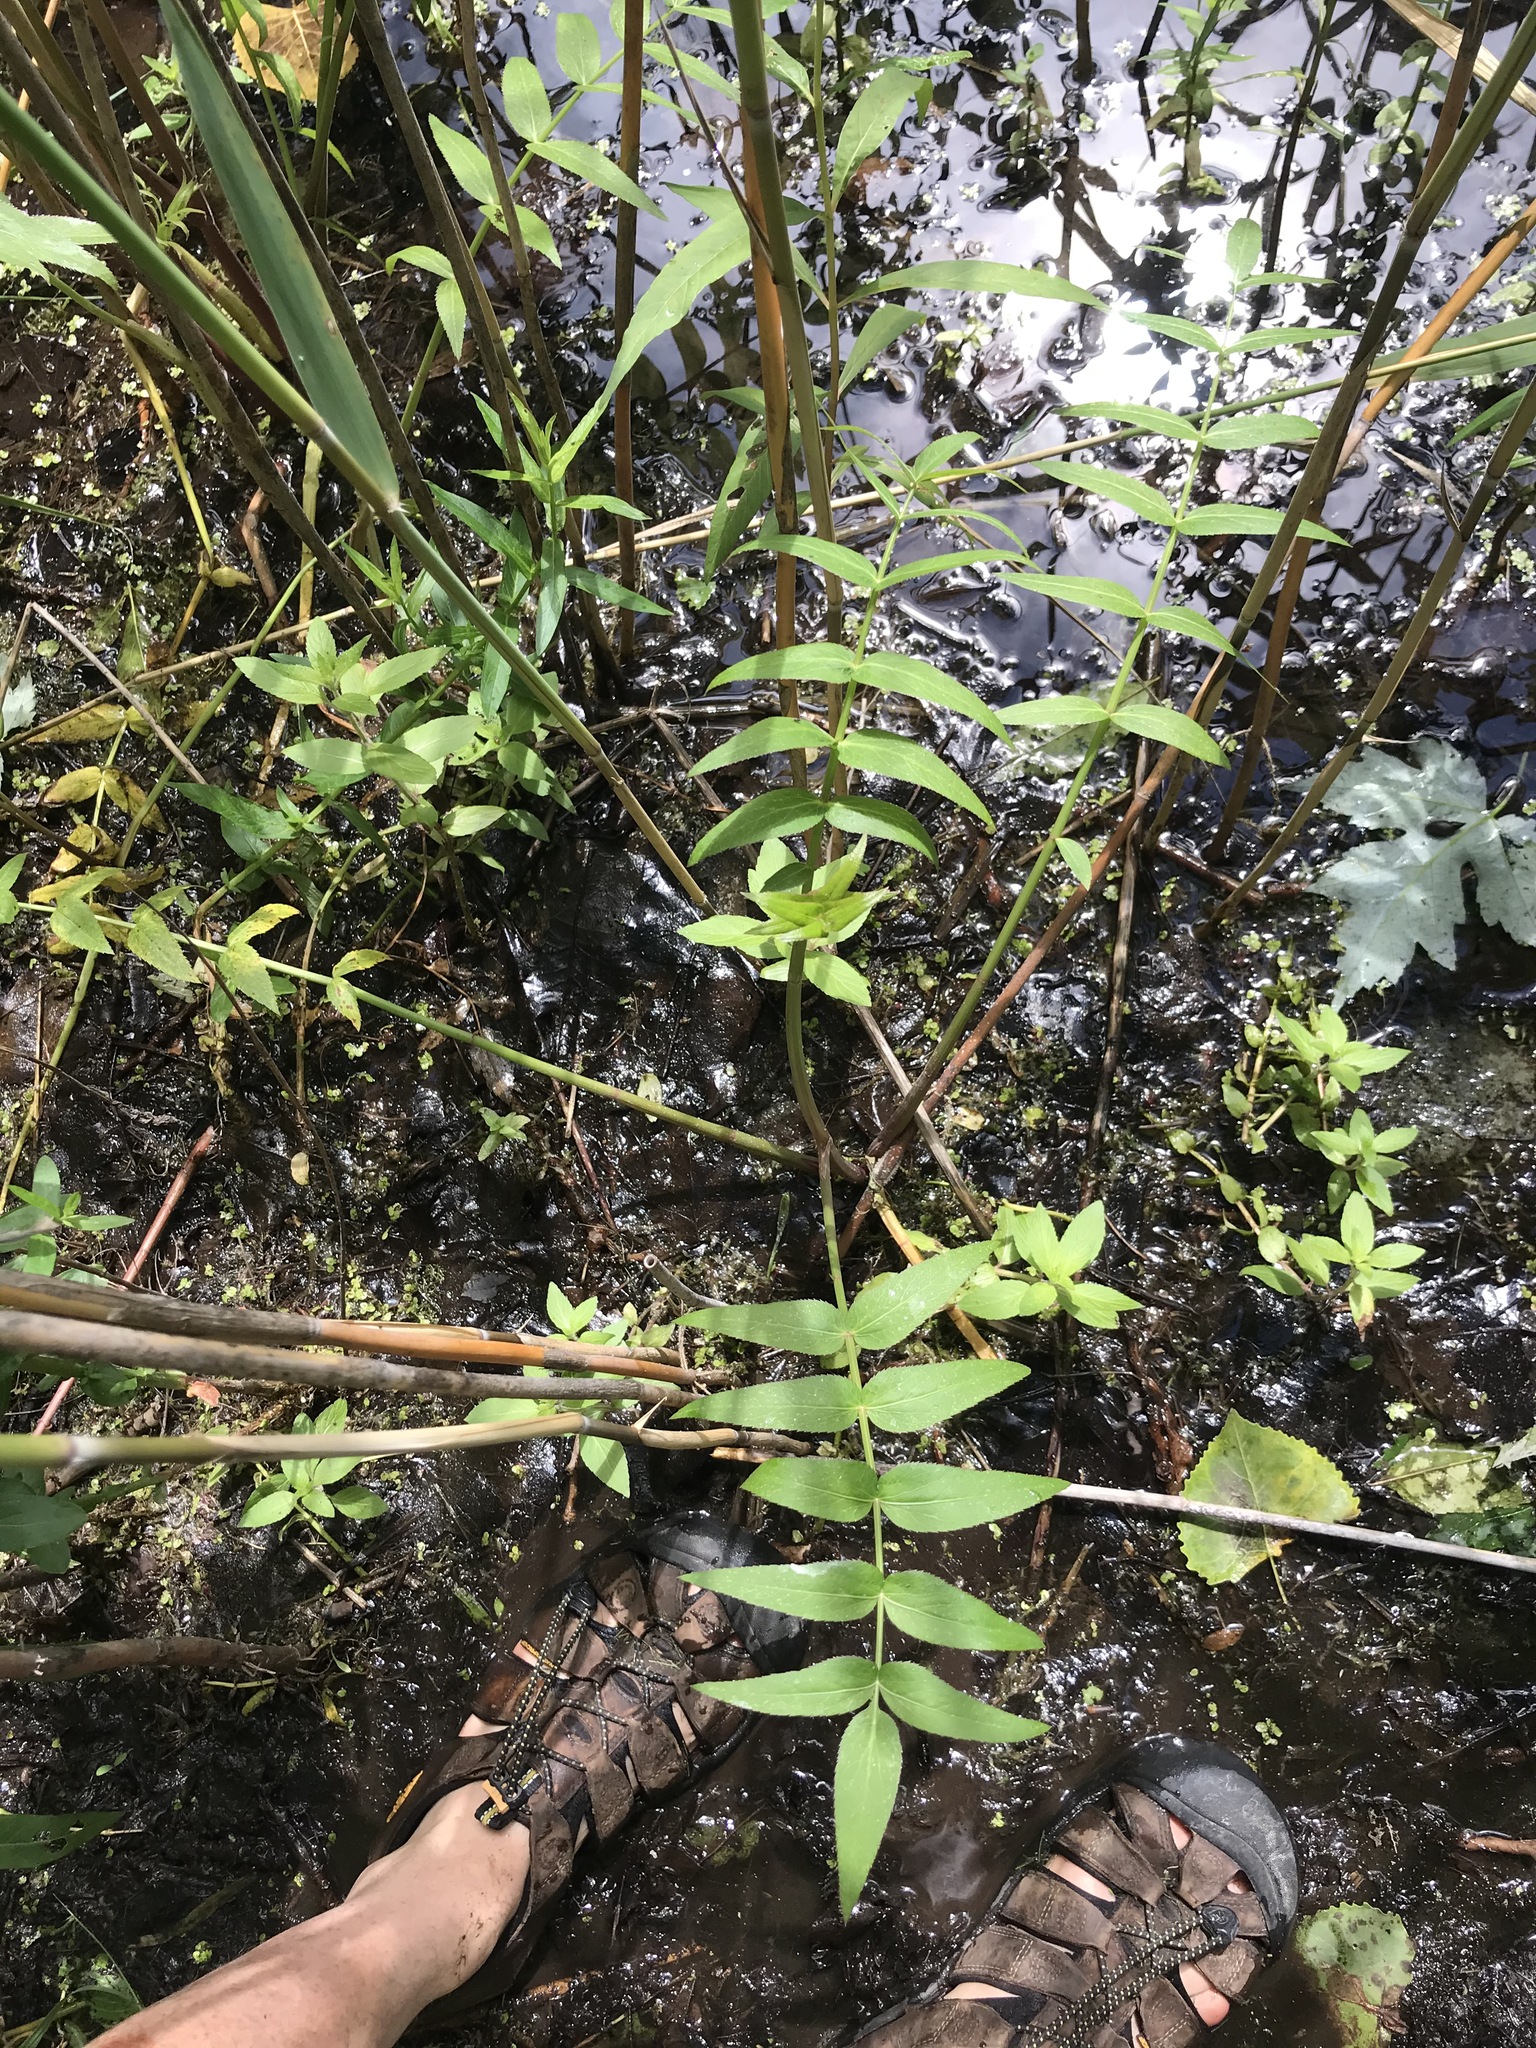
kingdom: Plantae
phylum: Tracheophyta
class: Magnoliopsida
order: Apiales
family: Apiaceae
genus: Sium
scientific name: Sium suave
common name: Hemlock water-parsnip
